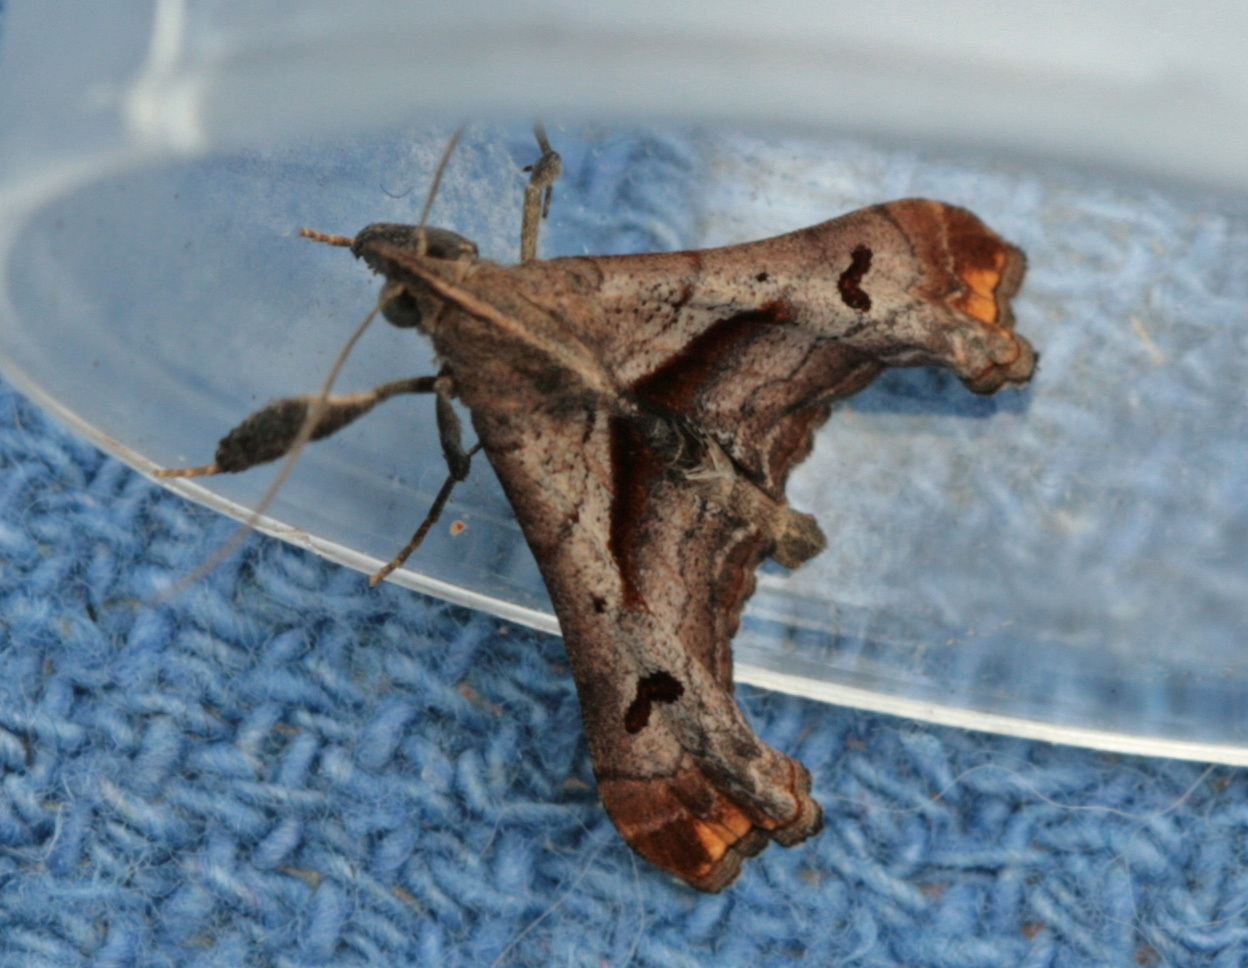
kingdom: Animalia
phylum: Arthropoda
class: Insecta
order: Lepidoptera
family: Erebidae
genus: Palthis
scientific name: Palthis angulalis
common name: Dark-spotted palthis moth
